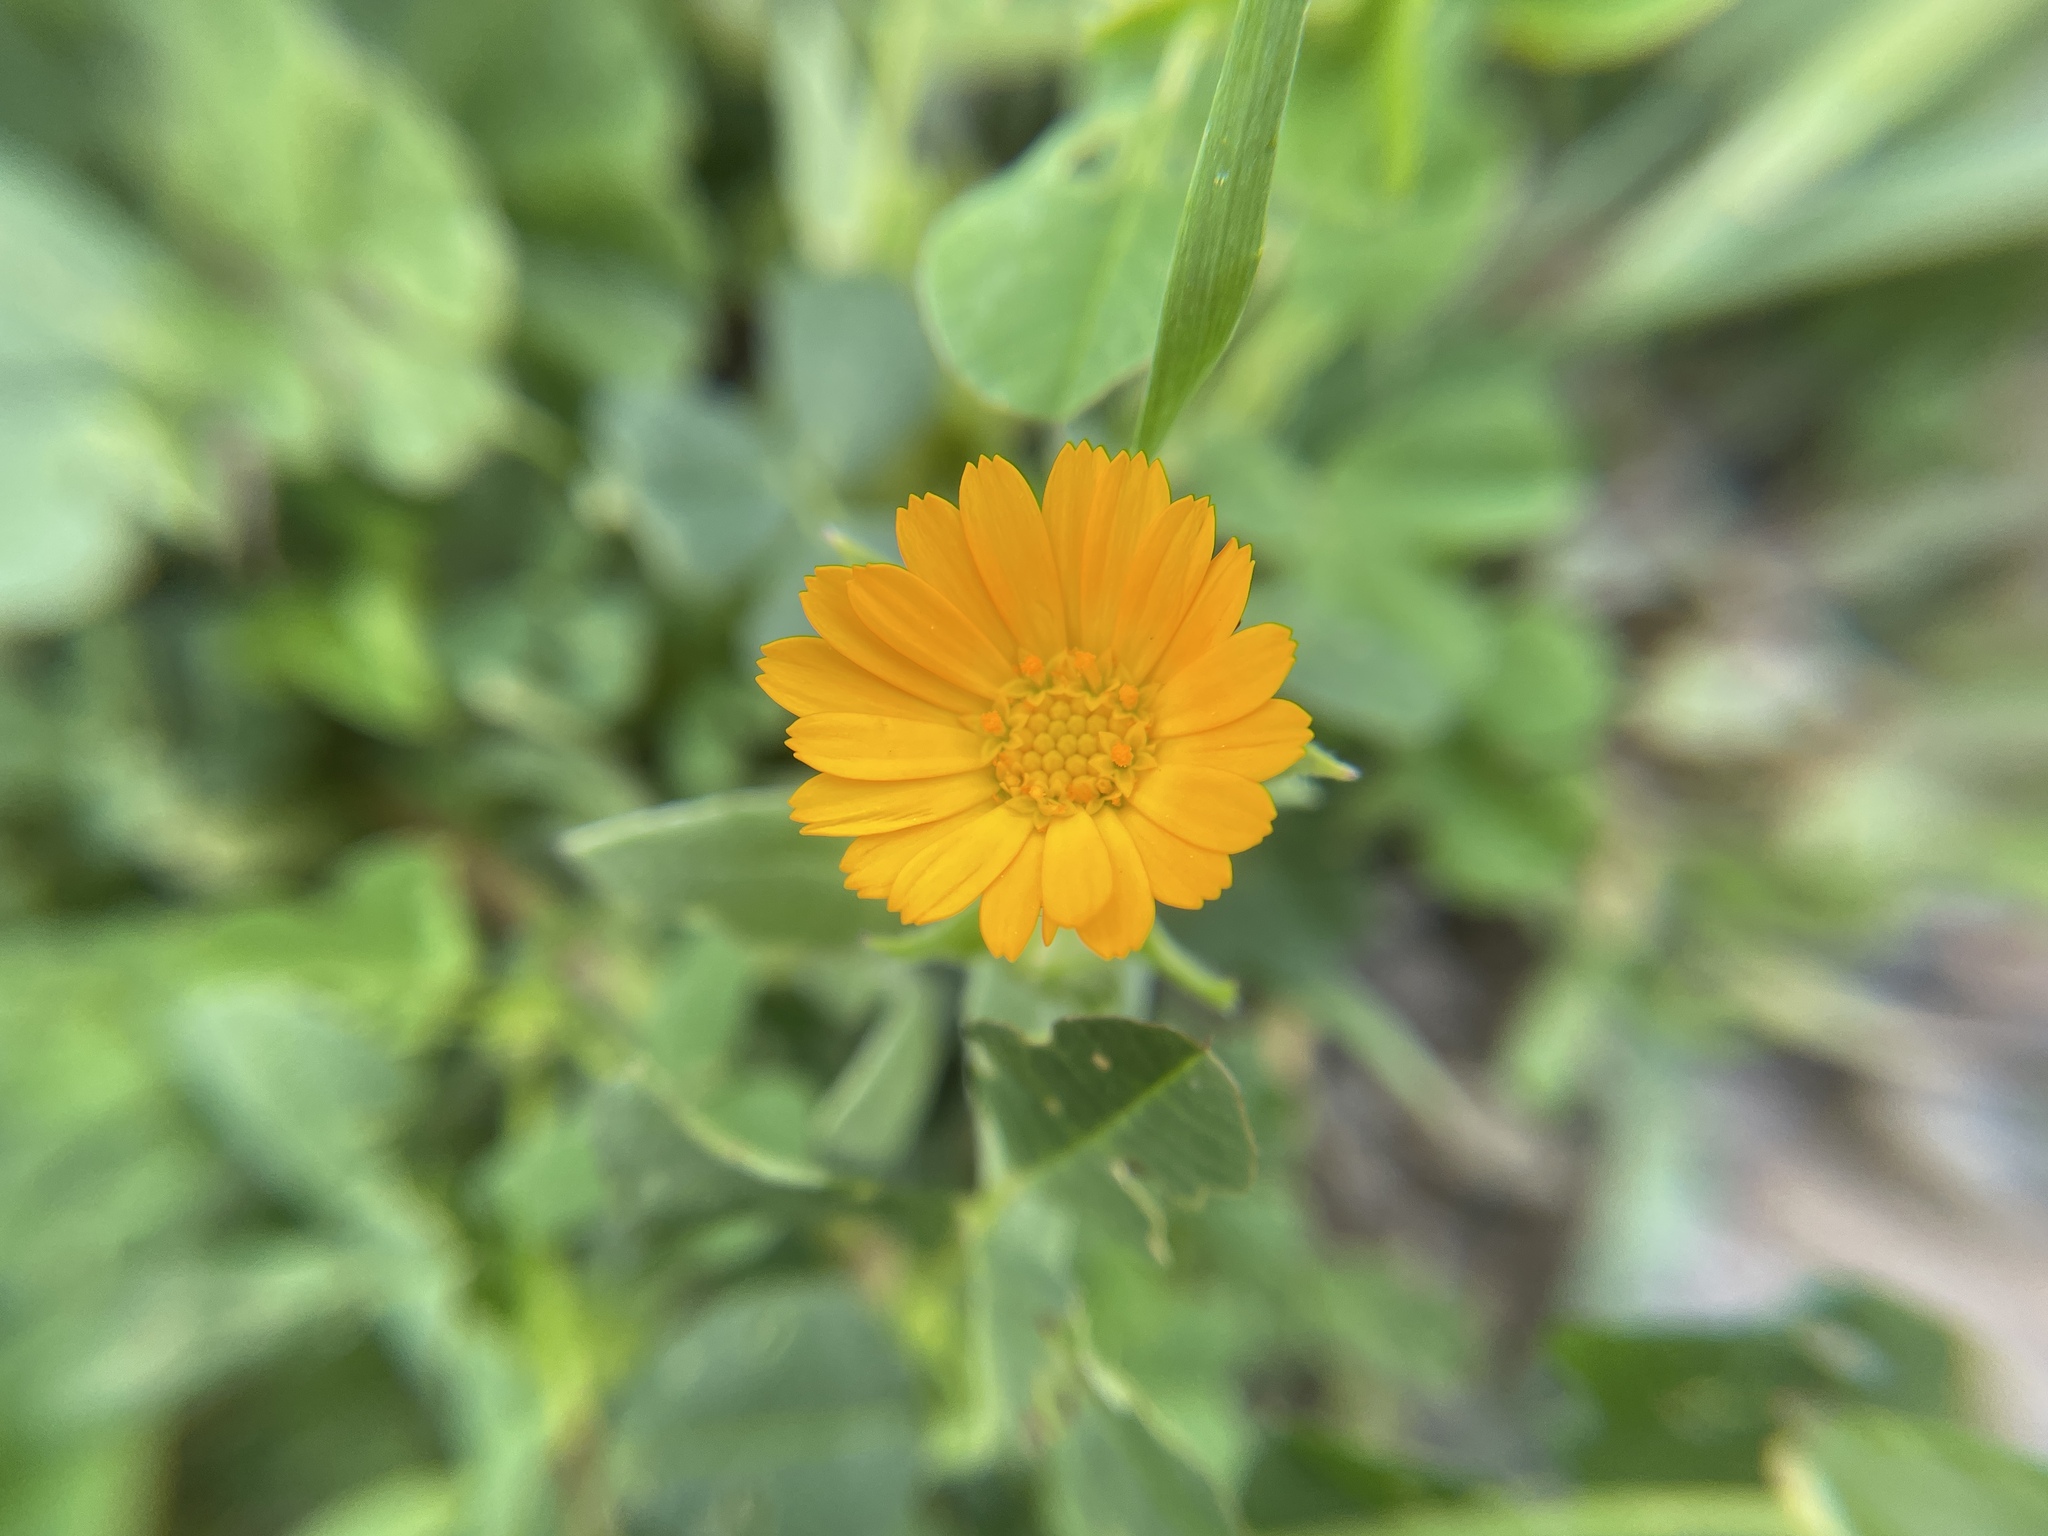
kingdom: Plantae
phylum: Tracheophyta
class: Magnoliopsida
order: Asterales
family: Asteraceae
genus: Calendula
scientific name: Calendula arvensis
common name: Field marigold
